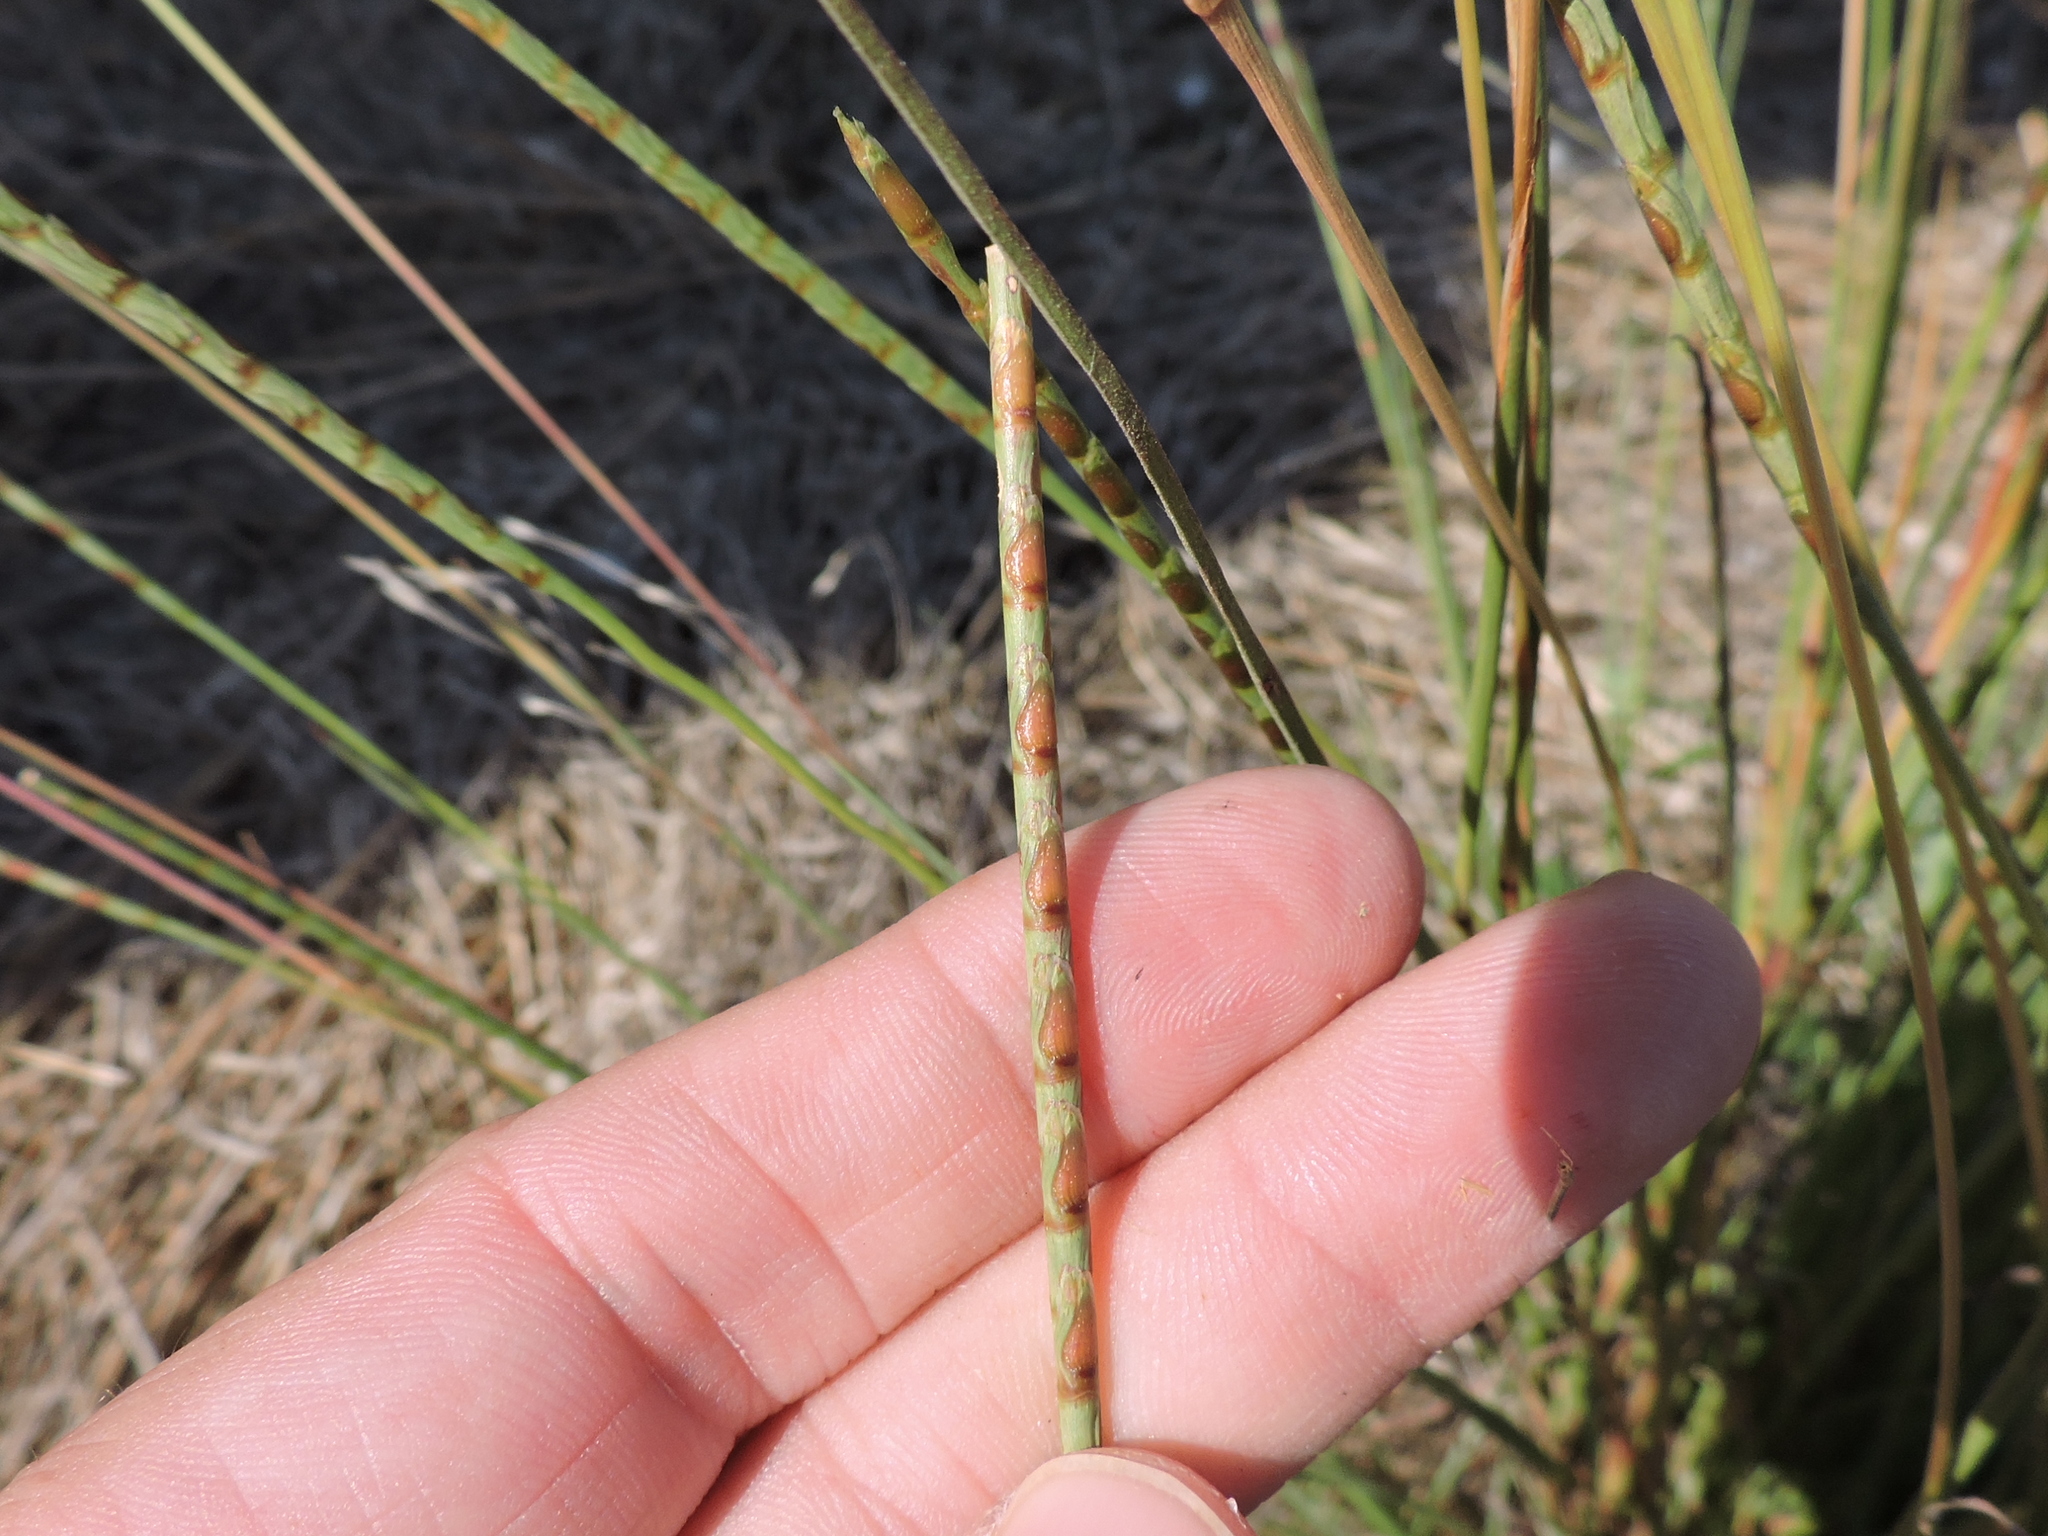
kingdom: Plantae
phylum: Tracheophyta
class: Liliopsida
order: Poales
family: Poaceae
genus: Rottboellia
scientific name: Rottboellia campestris
